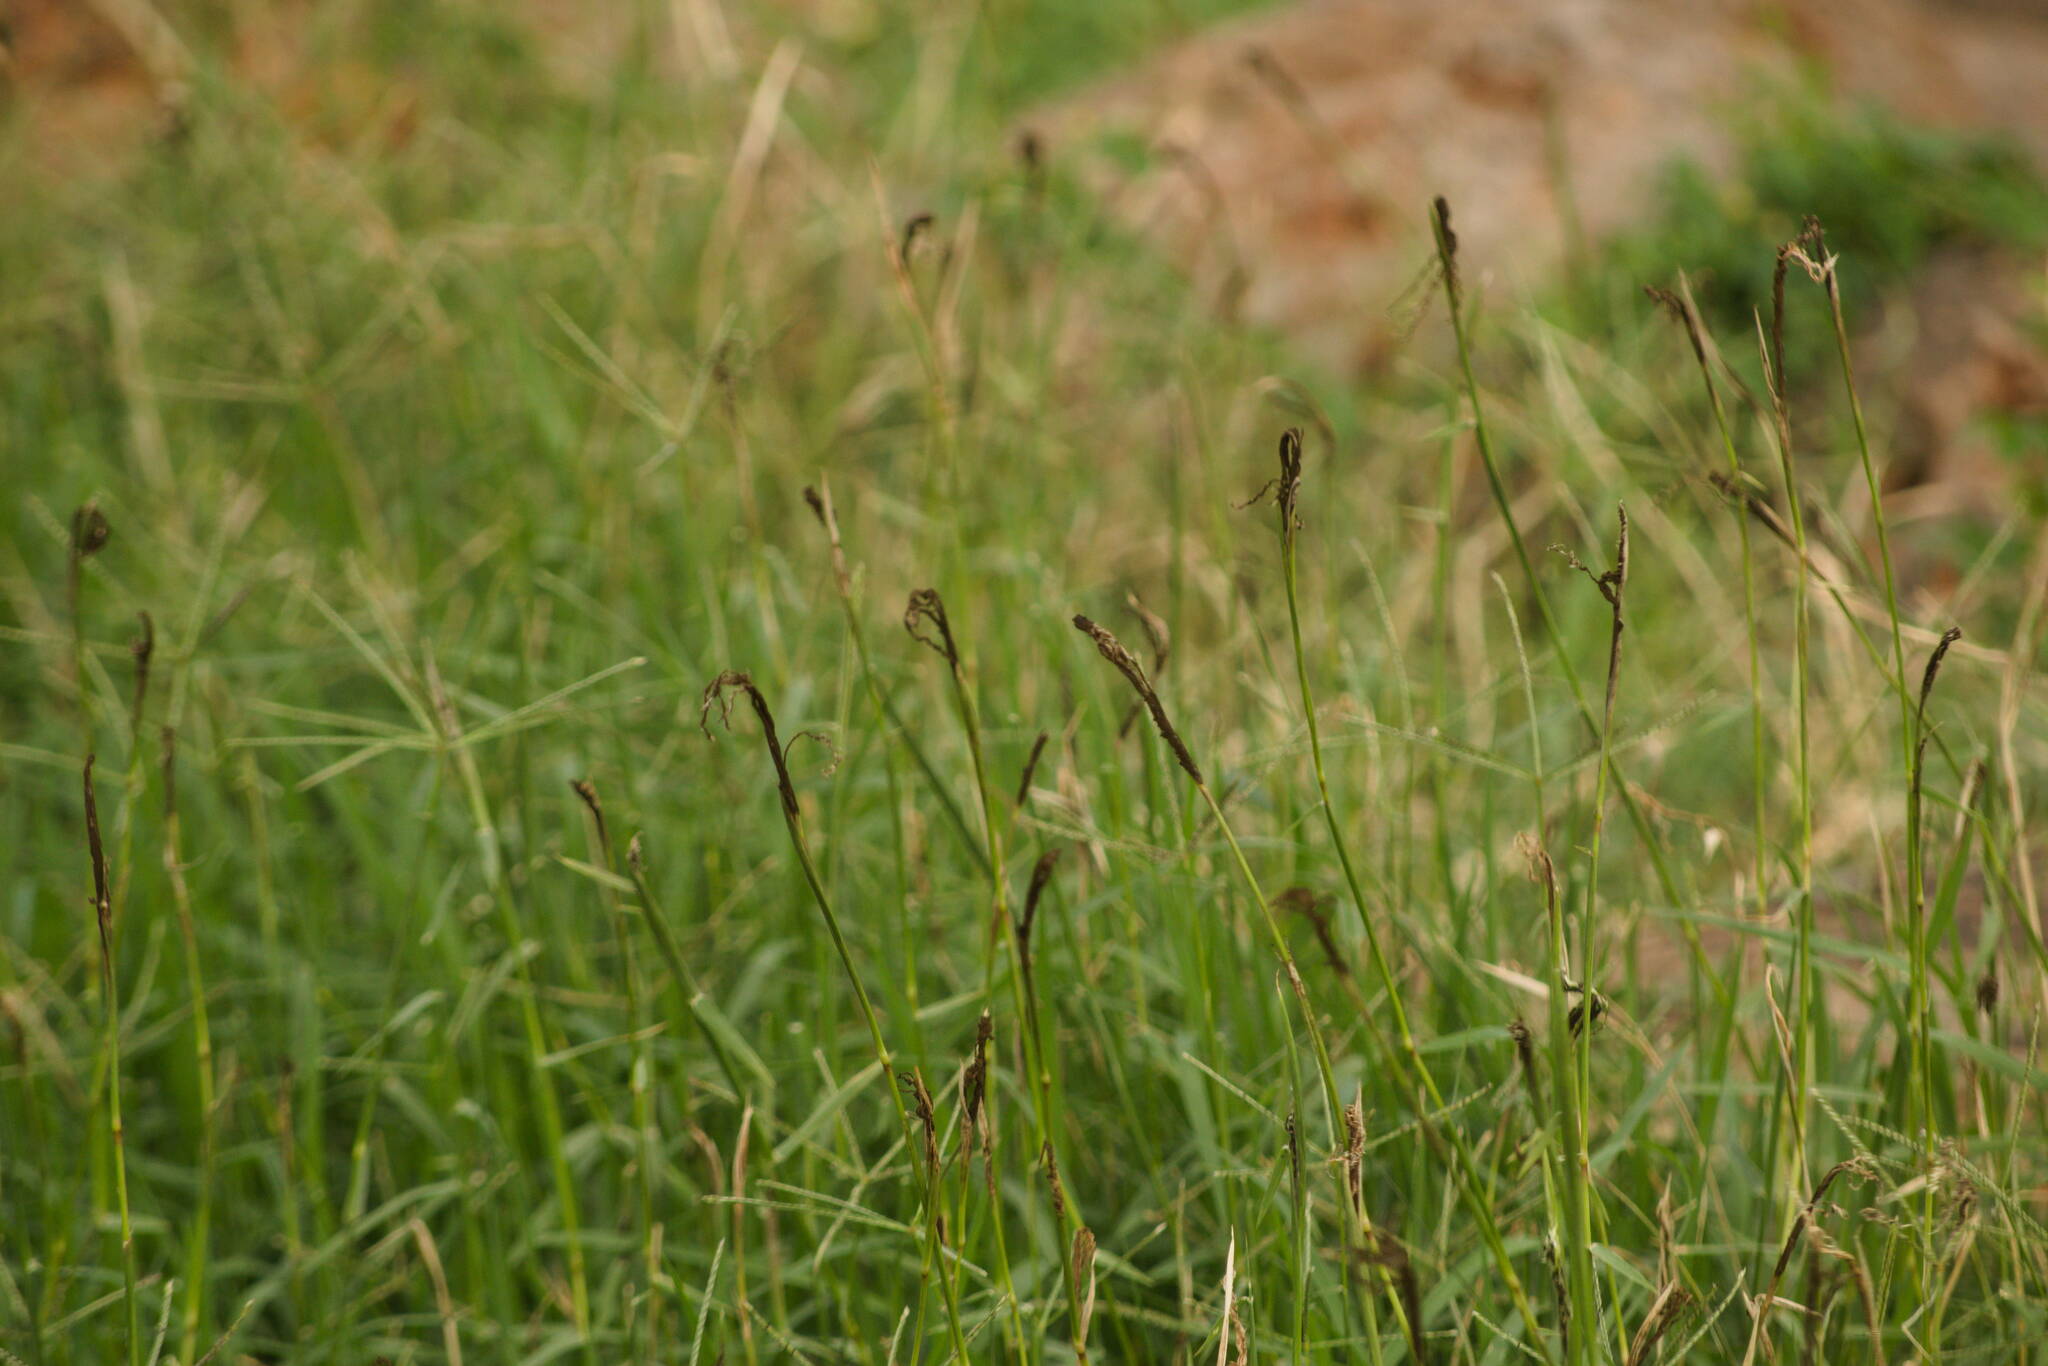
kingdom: Fungi
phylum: Basidiomycota
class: Ustilaginomycetes
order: Ustilaginales
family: Ustilaginaceae
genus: Ustilago
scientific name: Ustilago cynodontis
